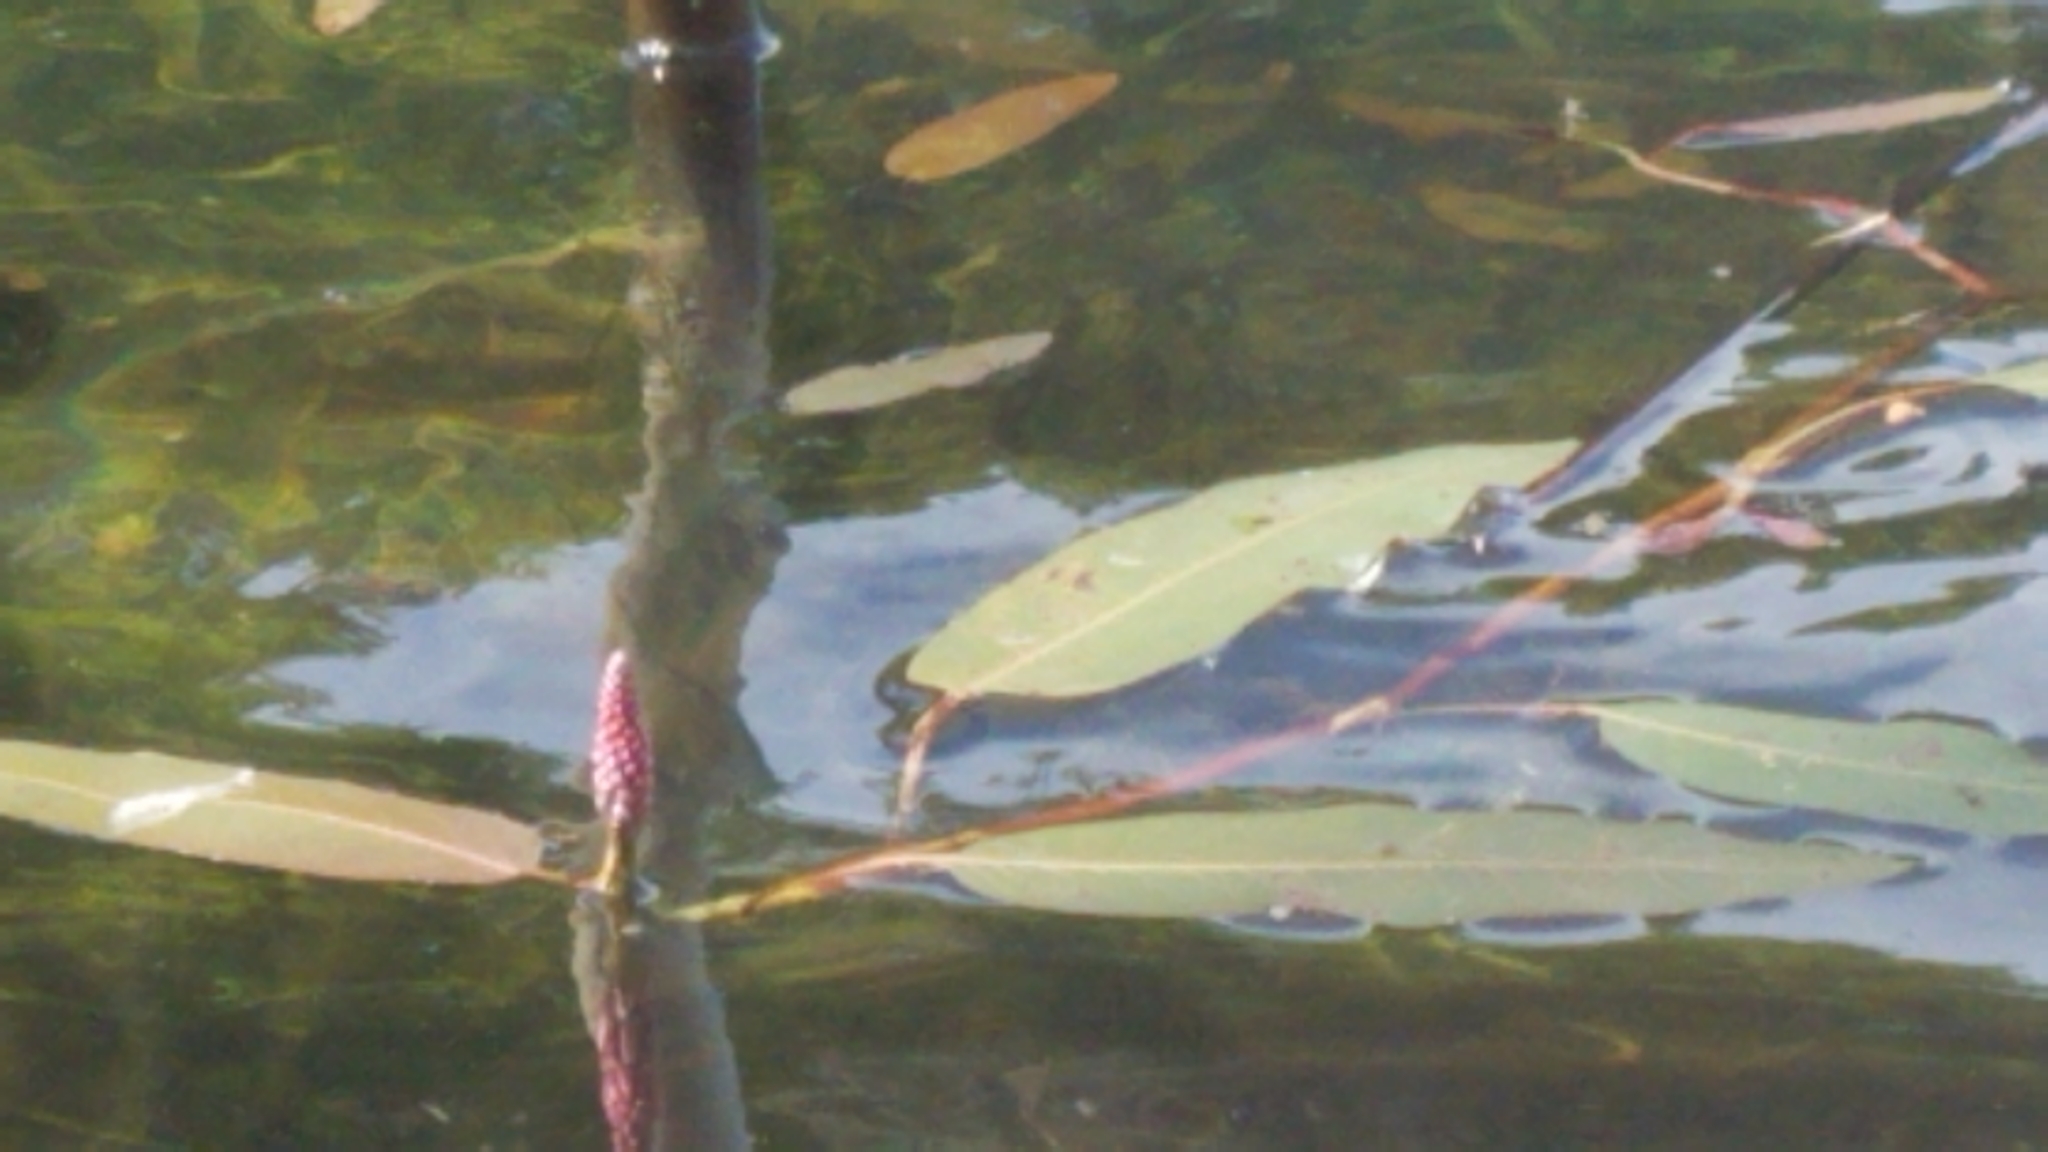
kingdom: Plantae
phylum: Tracheophyta
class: Magnoliopsida
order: Caryophyllales
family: Polygonaceae
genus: Persicaria
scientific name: Persicaria amphibia
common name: Amphibious bistort
